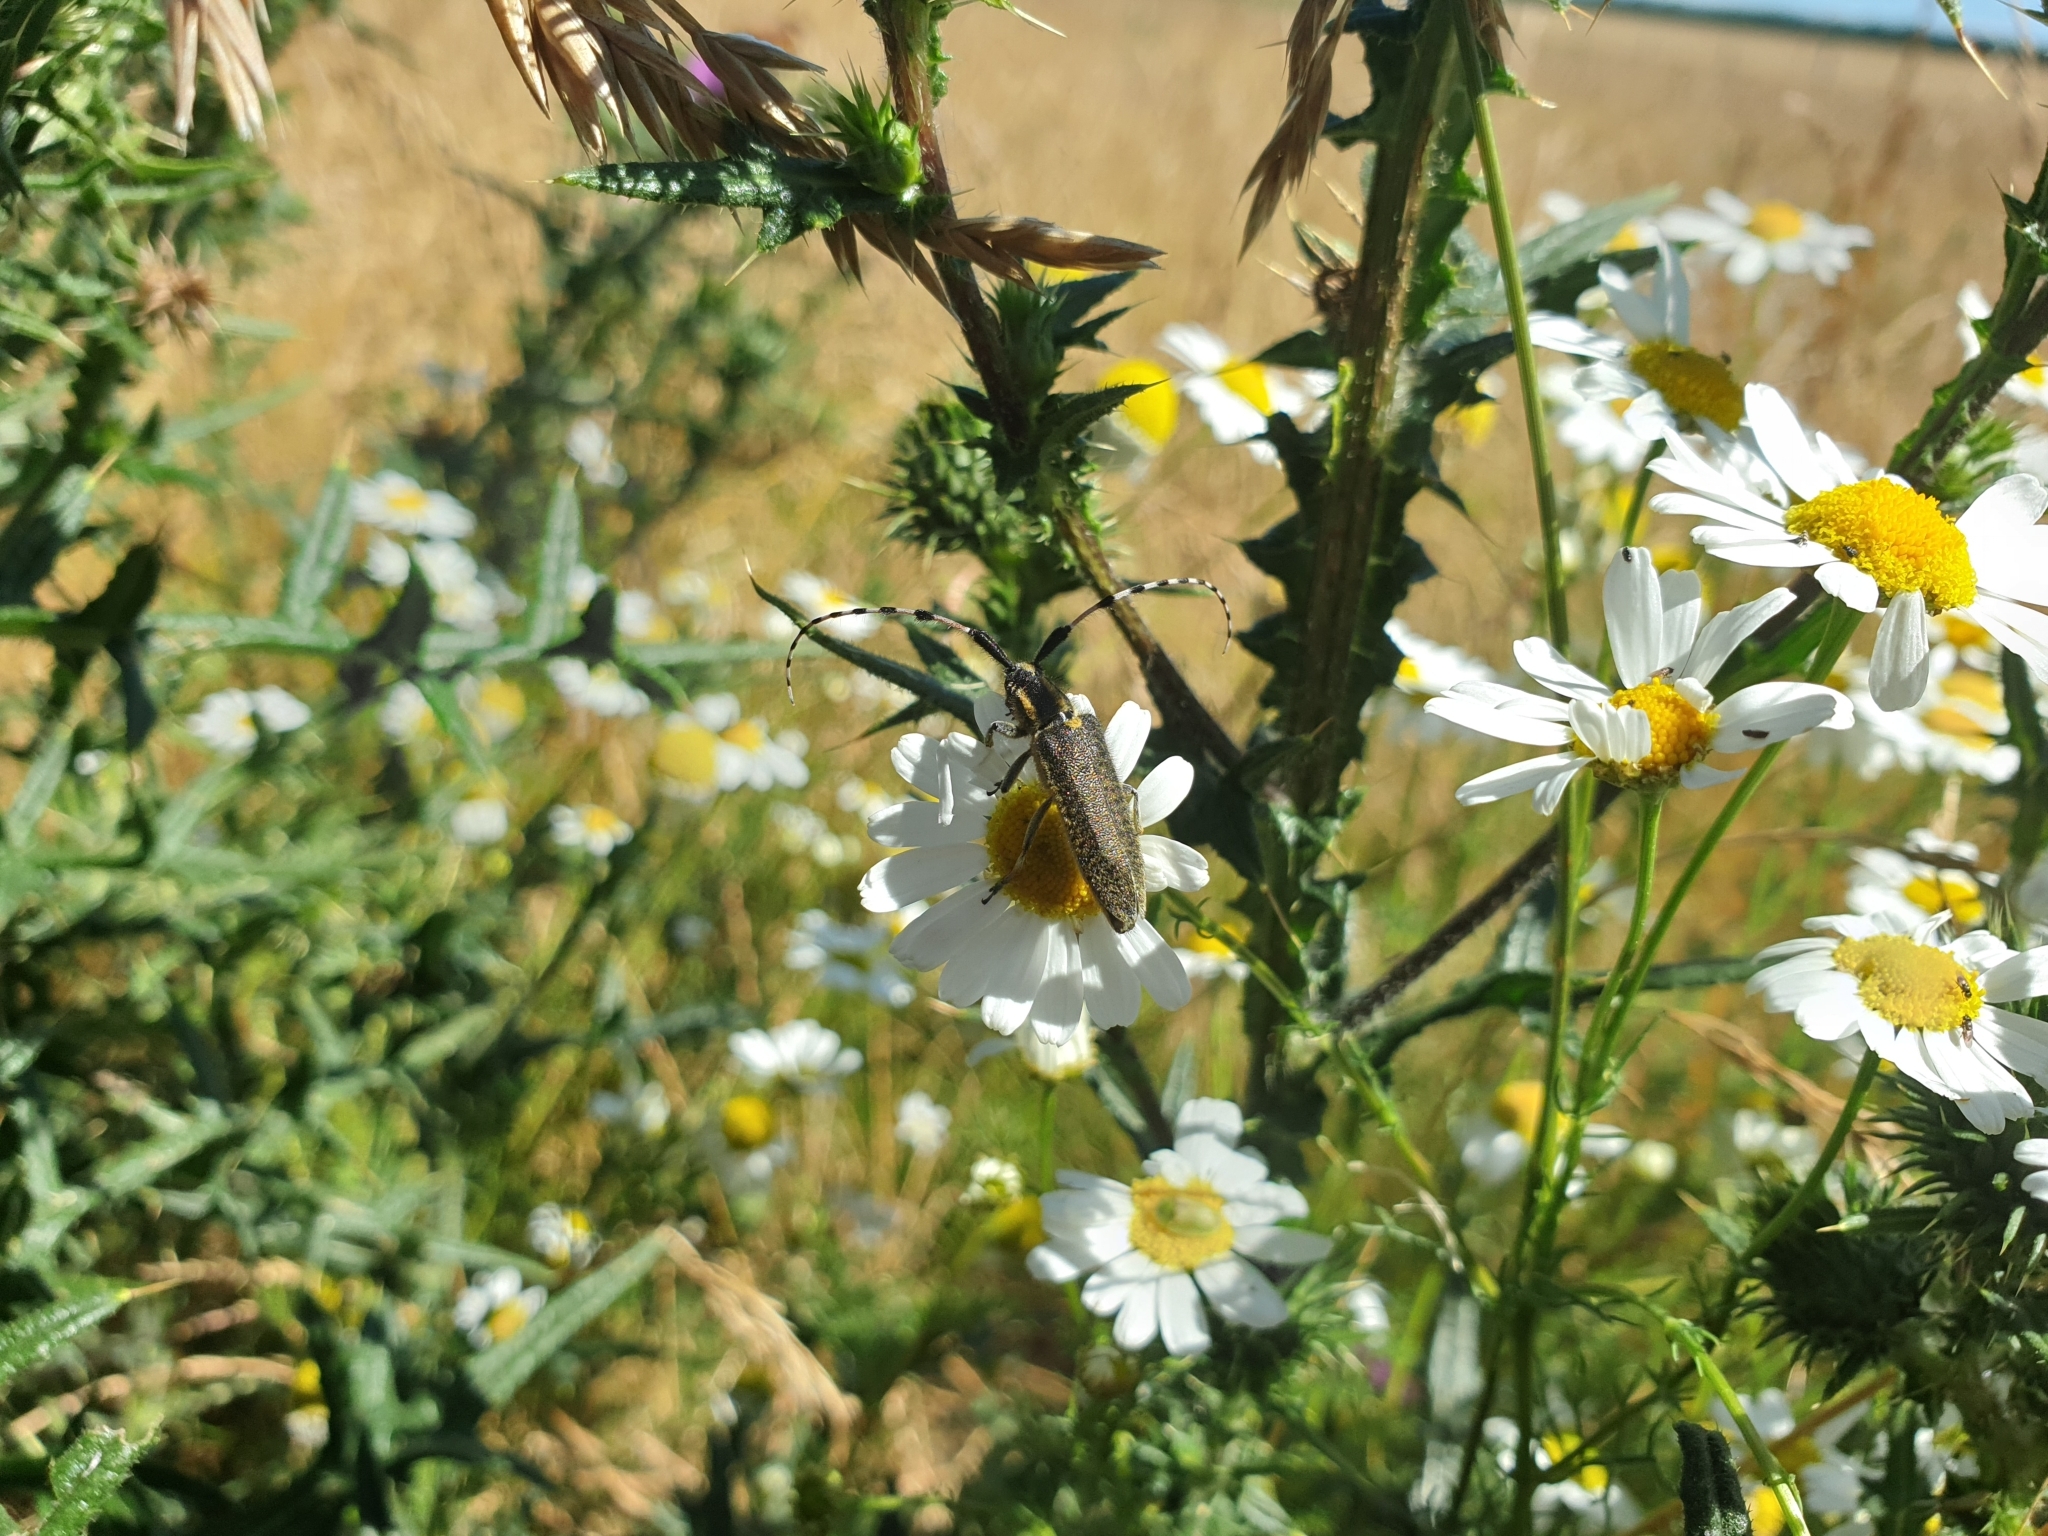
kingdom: Animalia
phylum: Arthropoda
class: Insecta
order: Coleoptera
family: Cerambycidae
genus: Agapanthia
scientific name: Agapanthia dahlii
